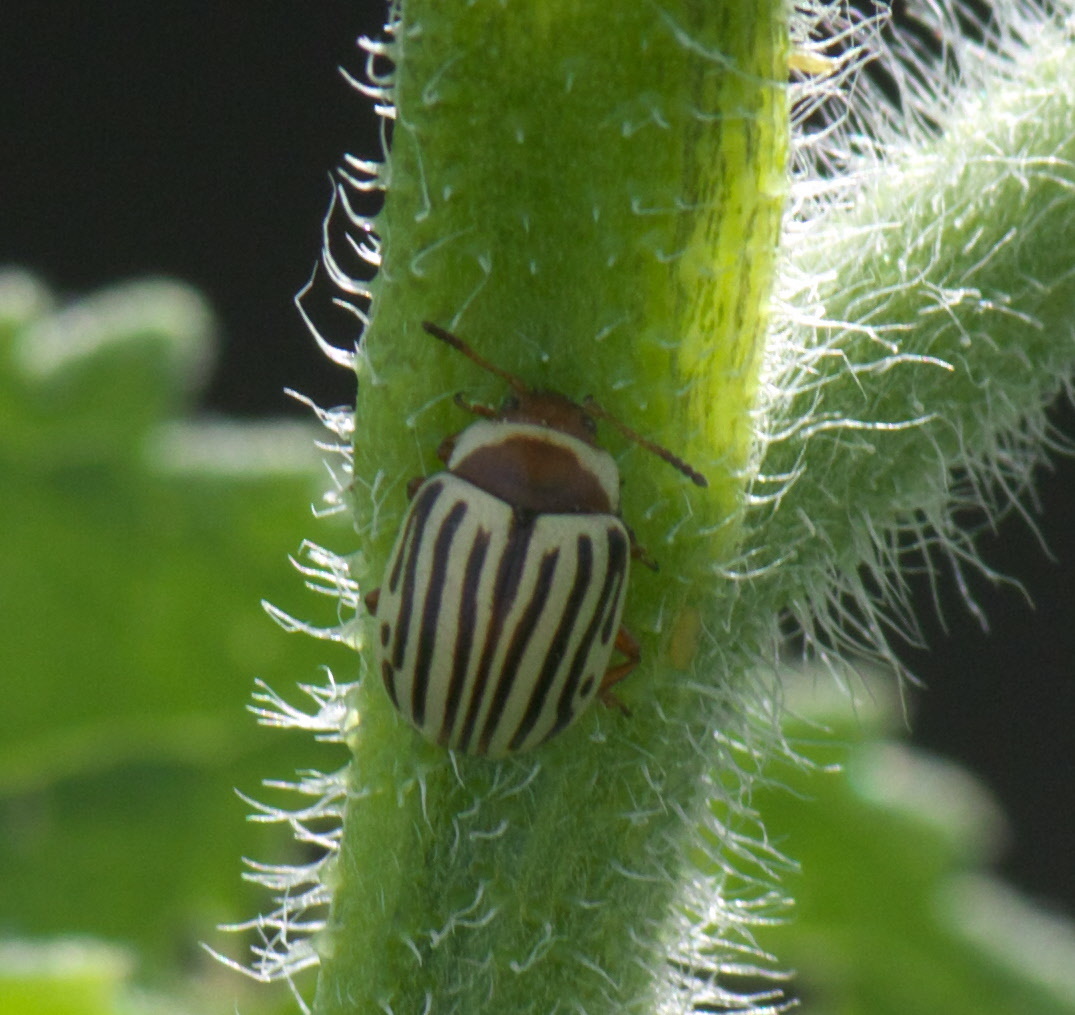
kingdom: Animalia
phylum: Arthropoda
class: Insecta
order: Coleoptera
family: Chrysomelidae
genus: Calligrapha
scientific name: Calligrapha
